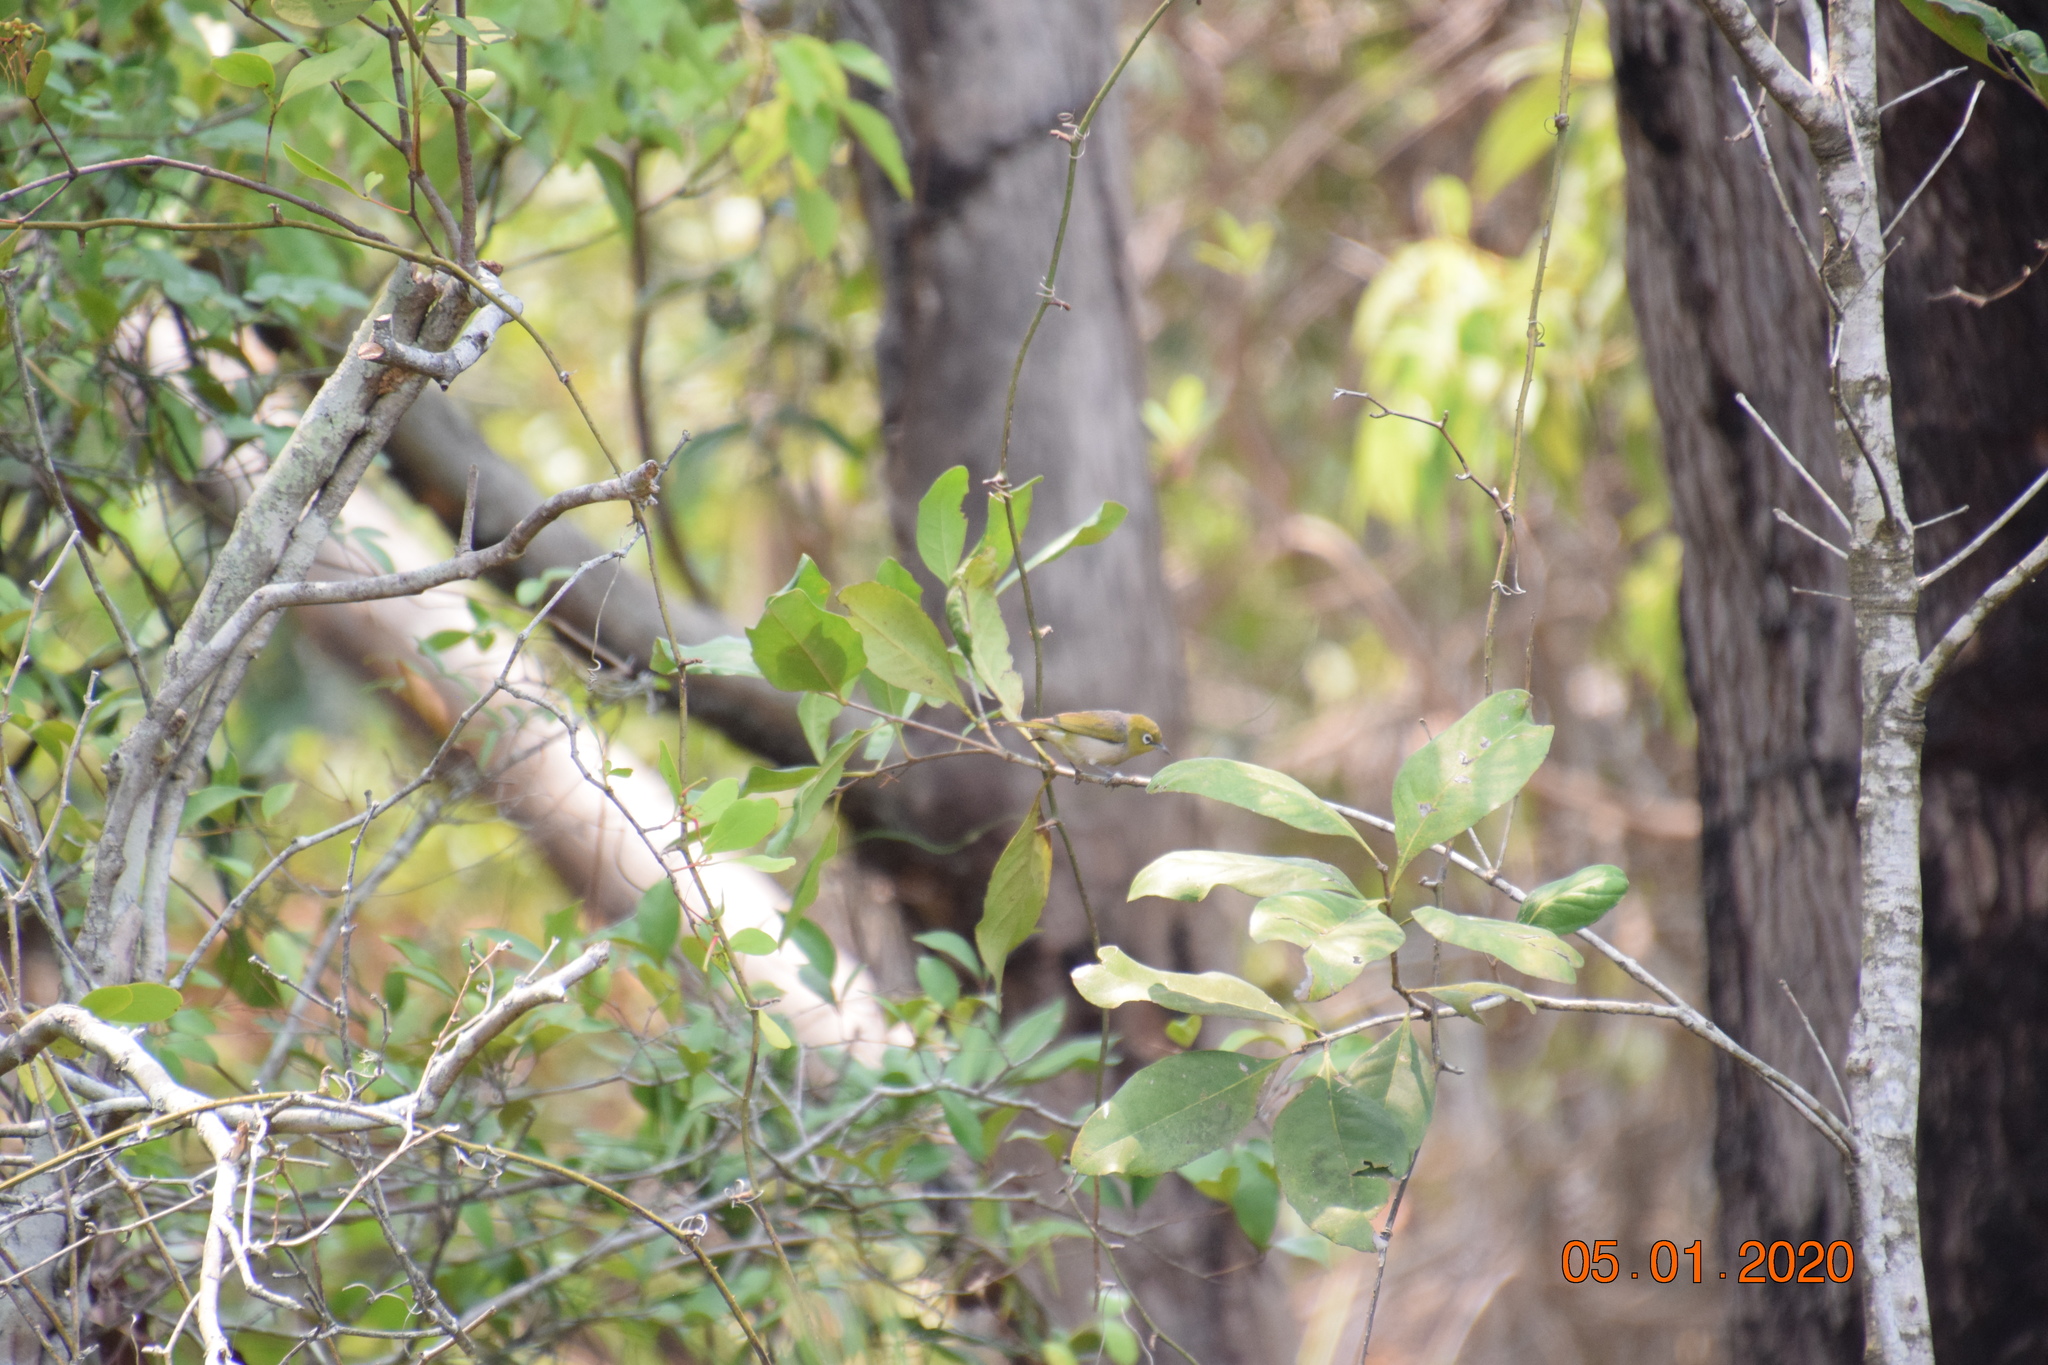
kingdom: Animalia
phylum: Chordata
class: Aves
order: Passeriformes
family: Zosteropidae
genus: Zosterops
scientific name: Zosterops lateralis
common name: Silvereye
